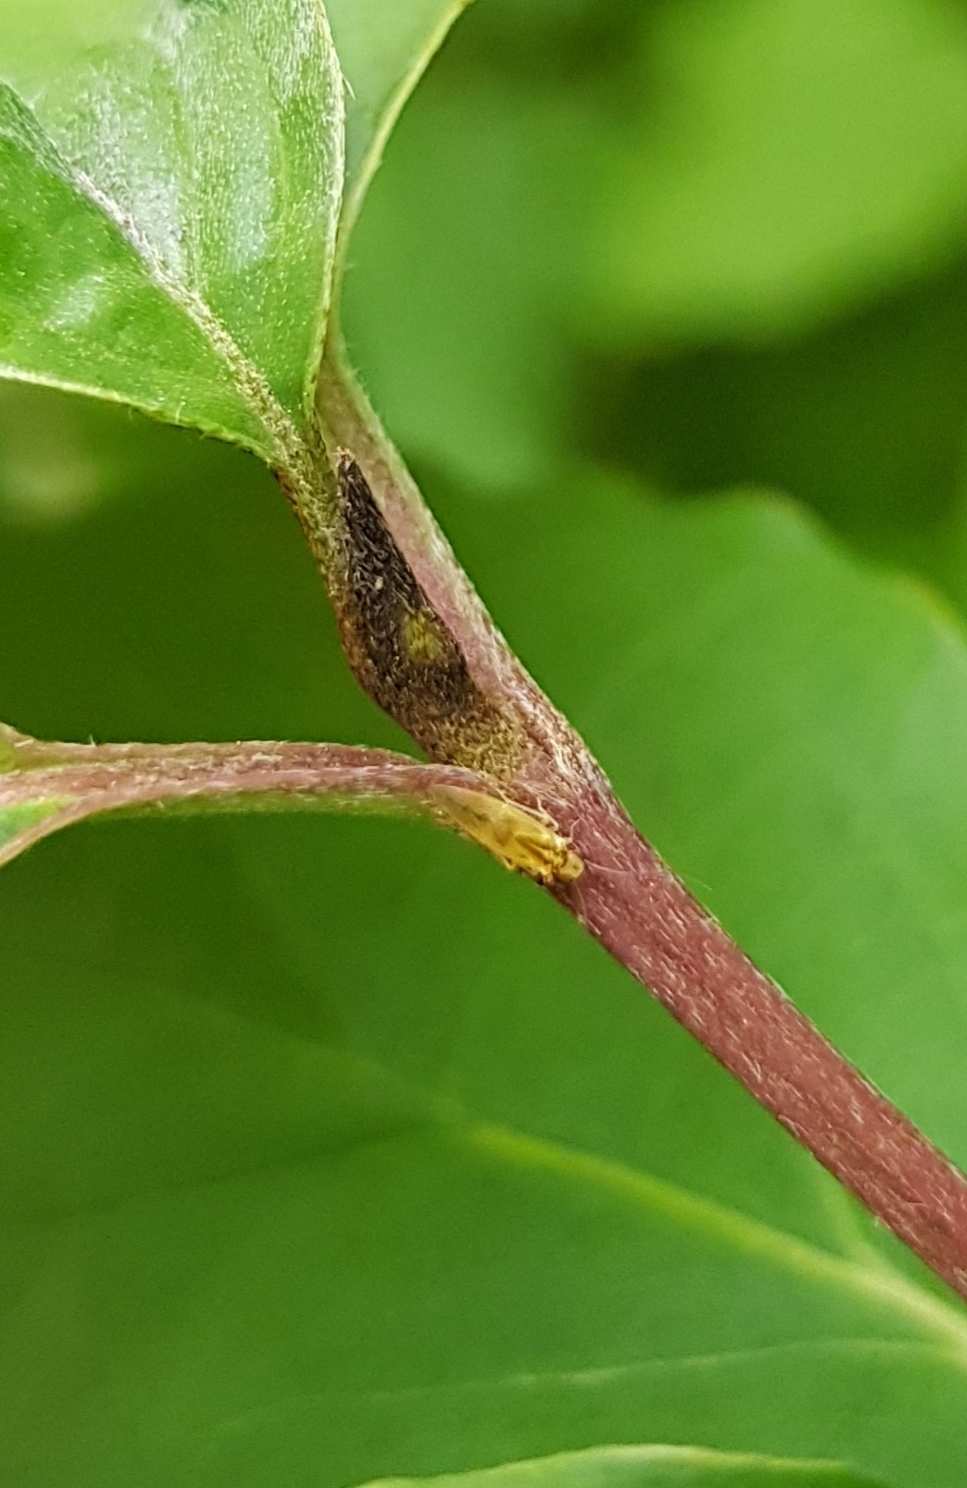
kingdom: Animalia
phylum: Arthropoda
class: Insecta
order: Psocodea
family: Caeciliusidae
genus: Valenzuela
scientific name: Valenzuela flavidus
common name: Yellow barklouse
